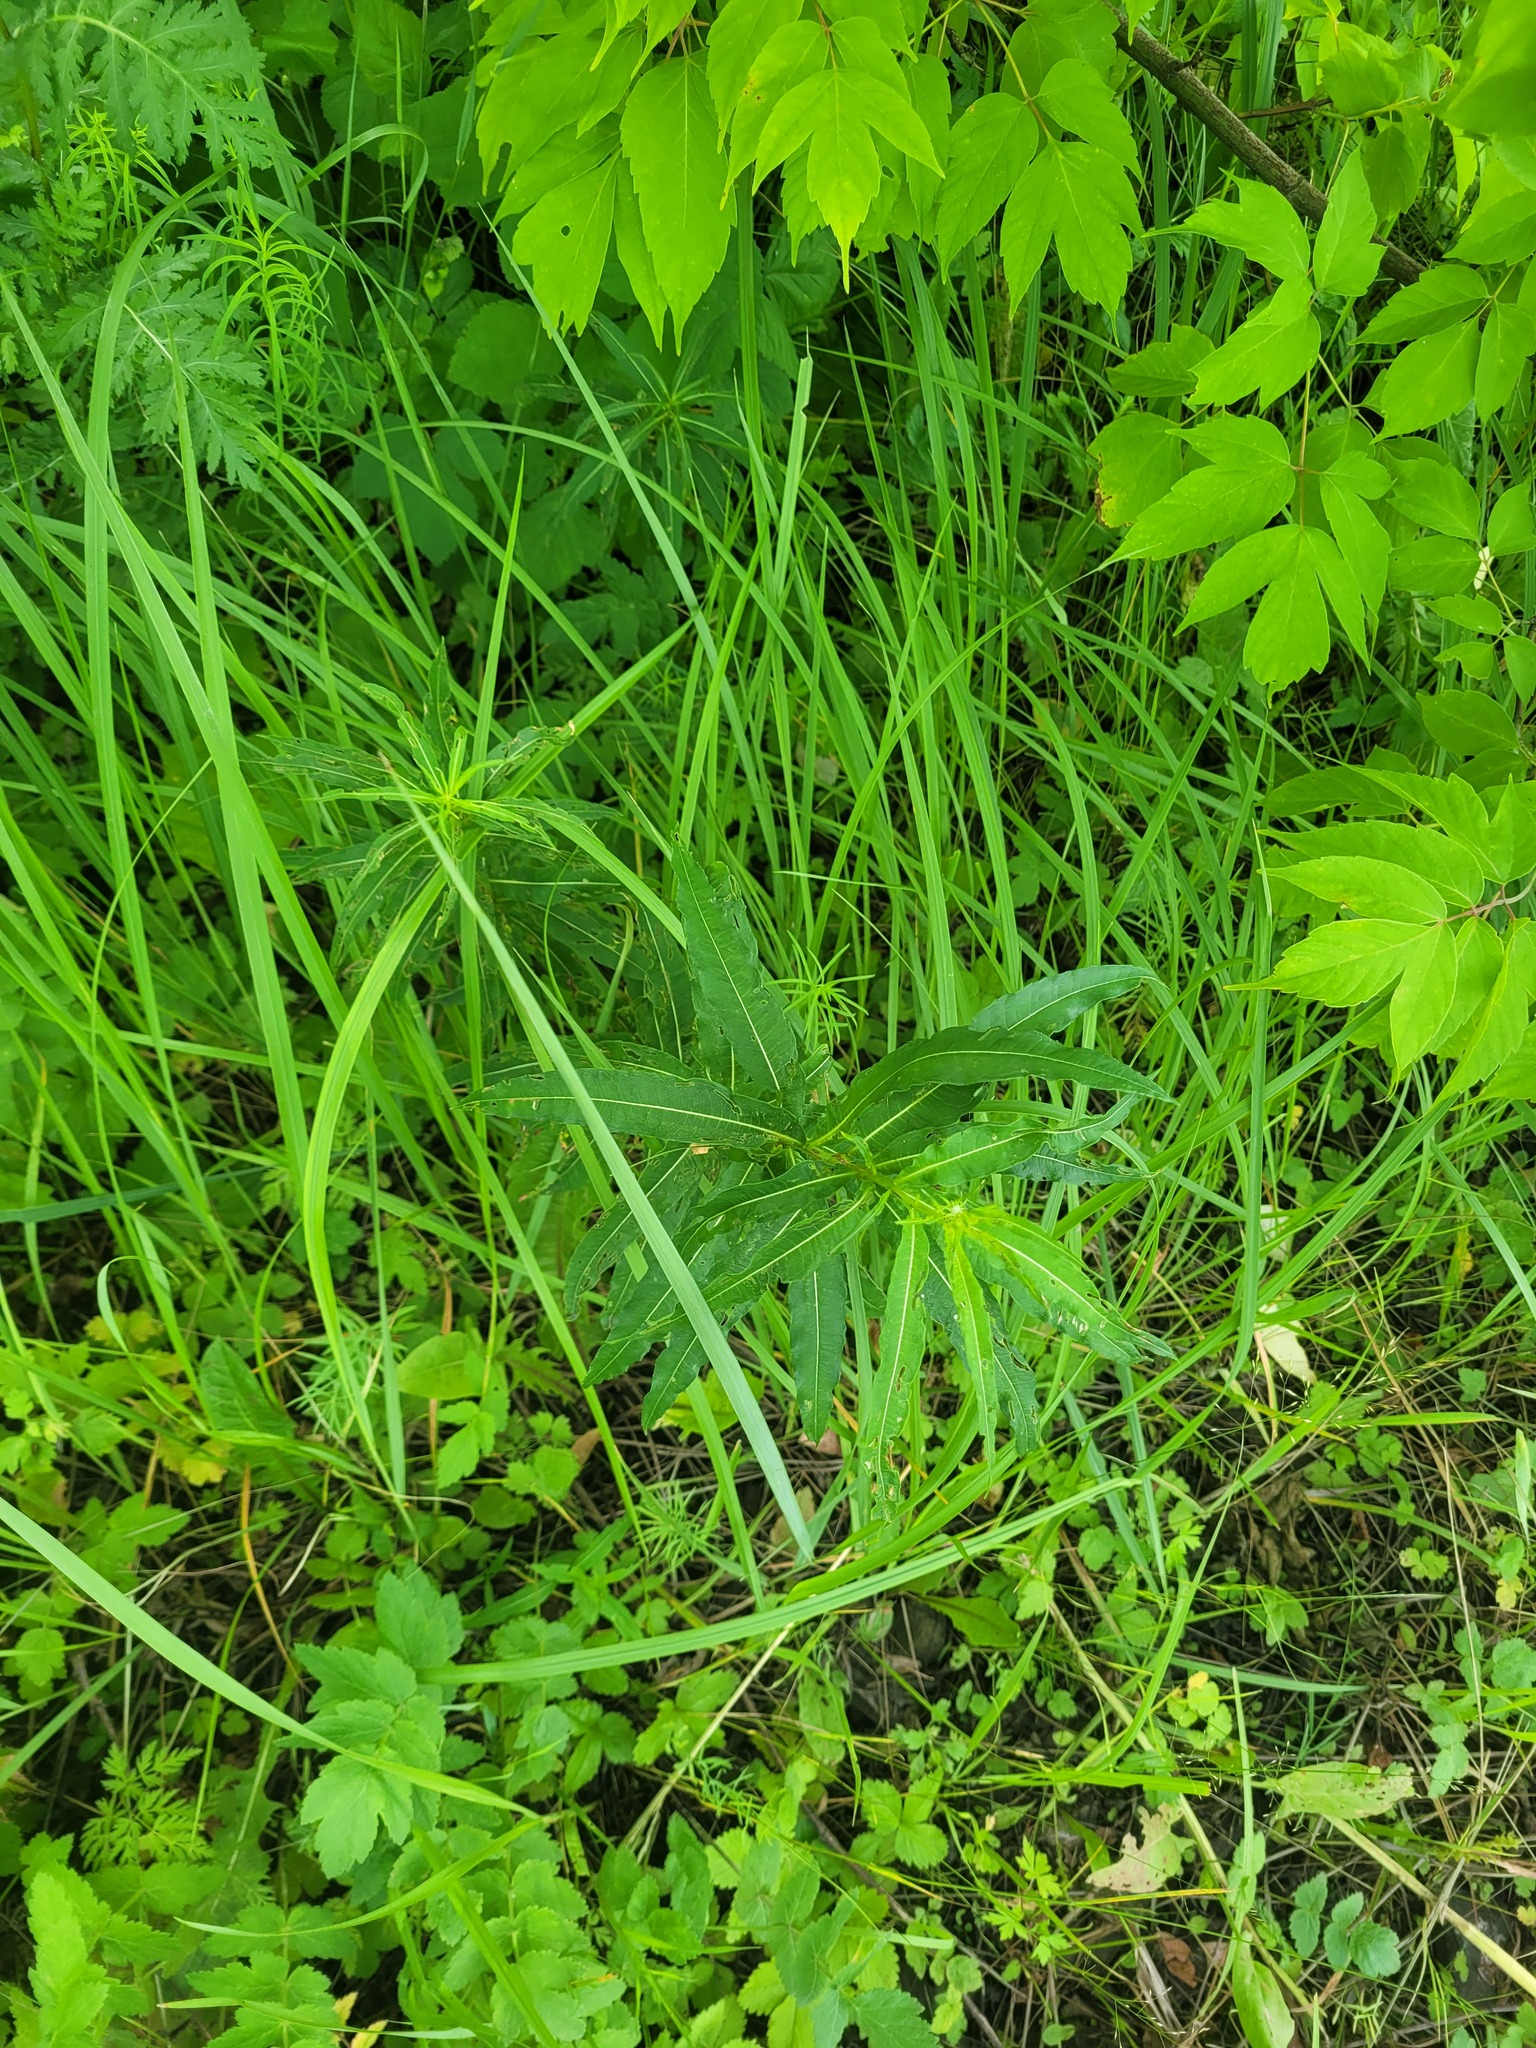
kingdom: Plantae
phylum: Tracheophyta
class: Magnoliopsida
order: Myrtales
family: Onagraceae
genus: Chamaenerion
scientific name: Chamaenerion angustifolium
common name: Fireweed
